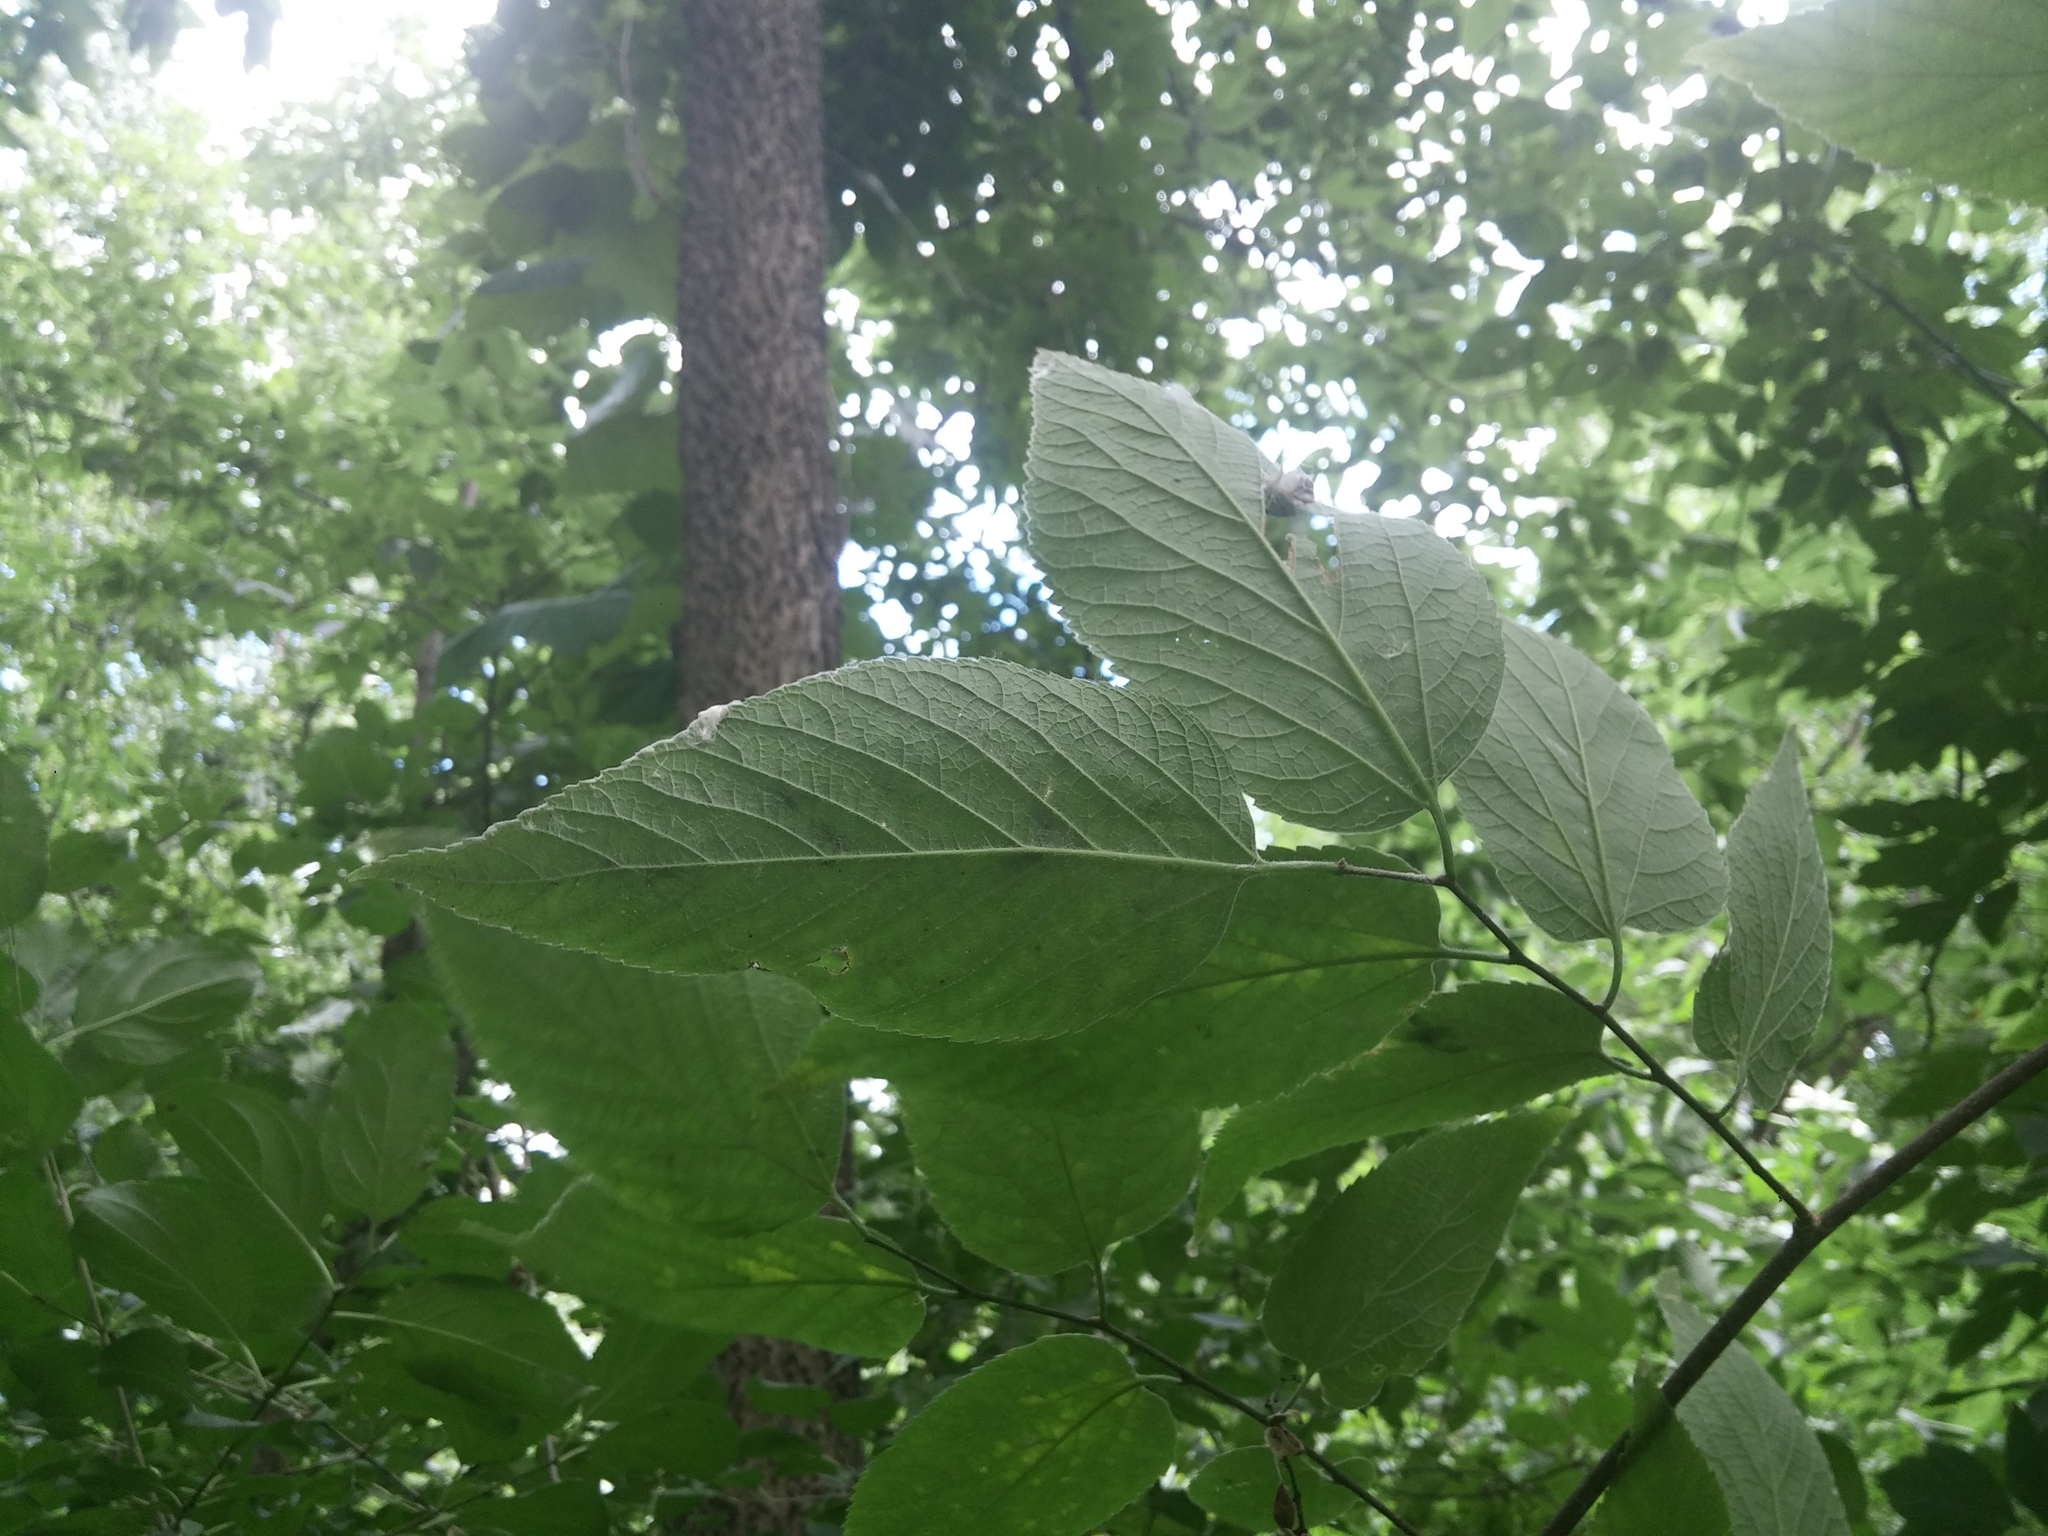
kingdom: Plantae
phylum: Tracheophyta
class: Magnoliopsida
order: Rosales
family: Cannabaceae
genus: Celtis
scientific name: Celtis occidentalis
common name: Common hackberry
